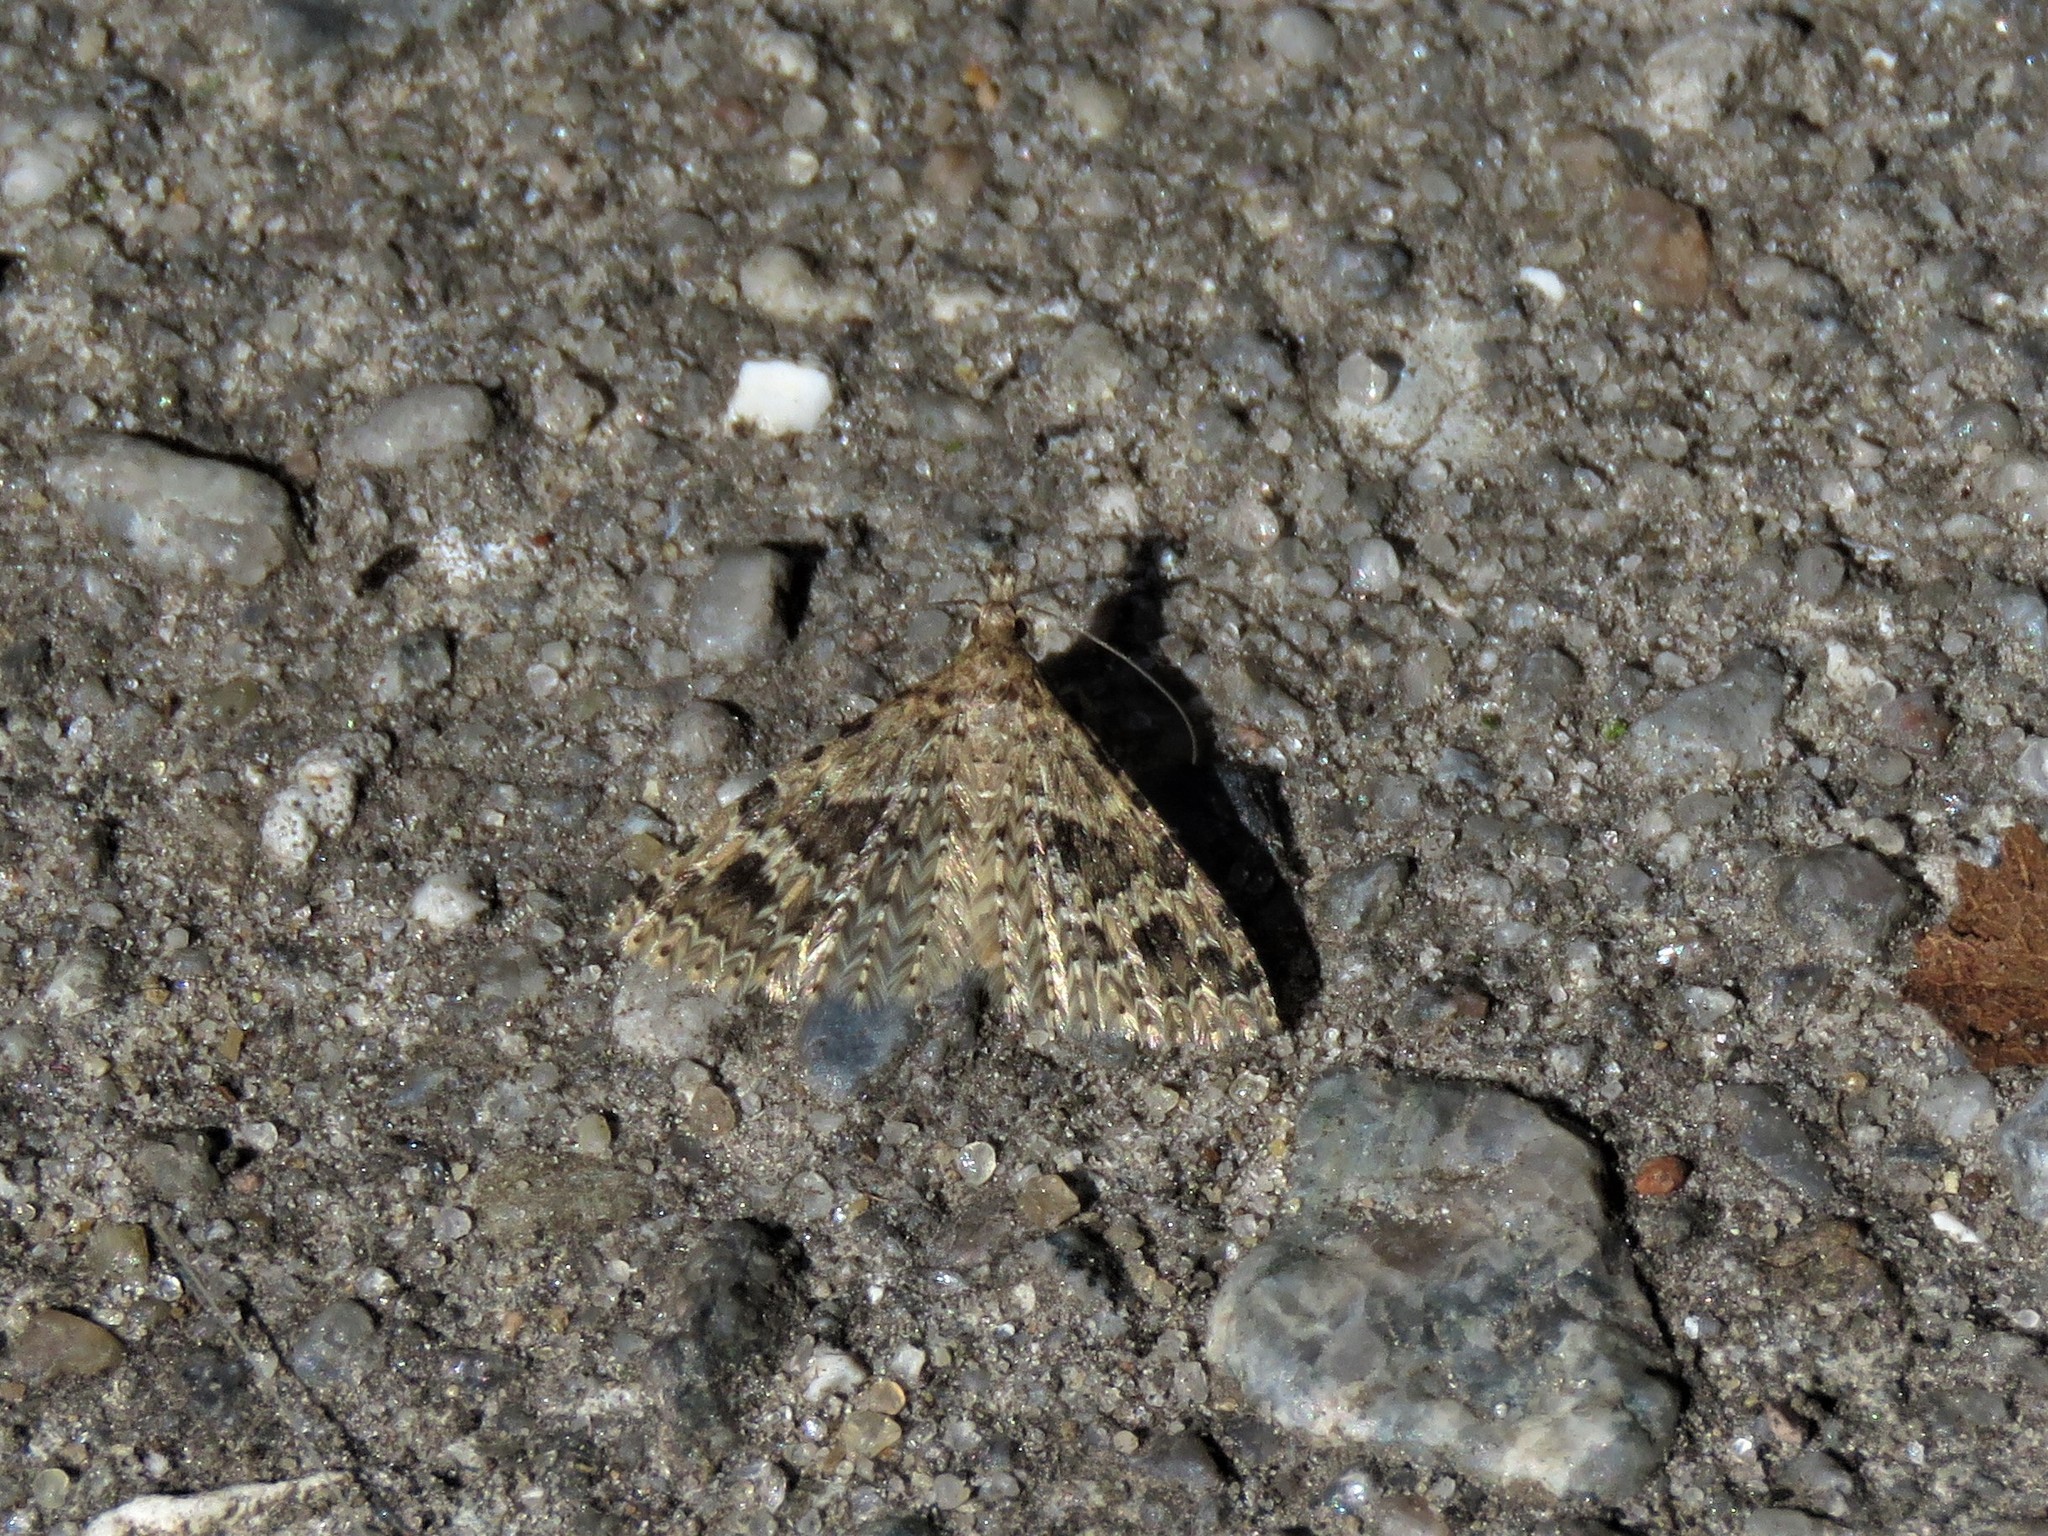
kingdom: Animalia
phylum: Arthropoda
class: Insecta
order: Lepidoptera
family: Alucitidae
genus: Alucita
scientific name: Alucita hexadactyla
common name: Twenty-plume moth
